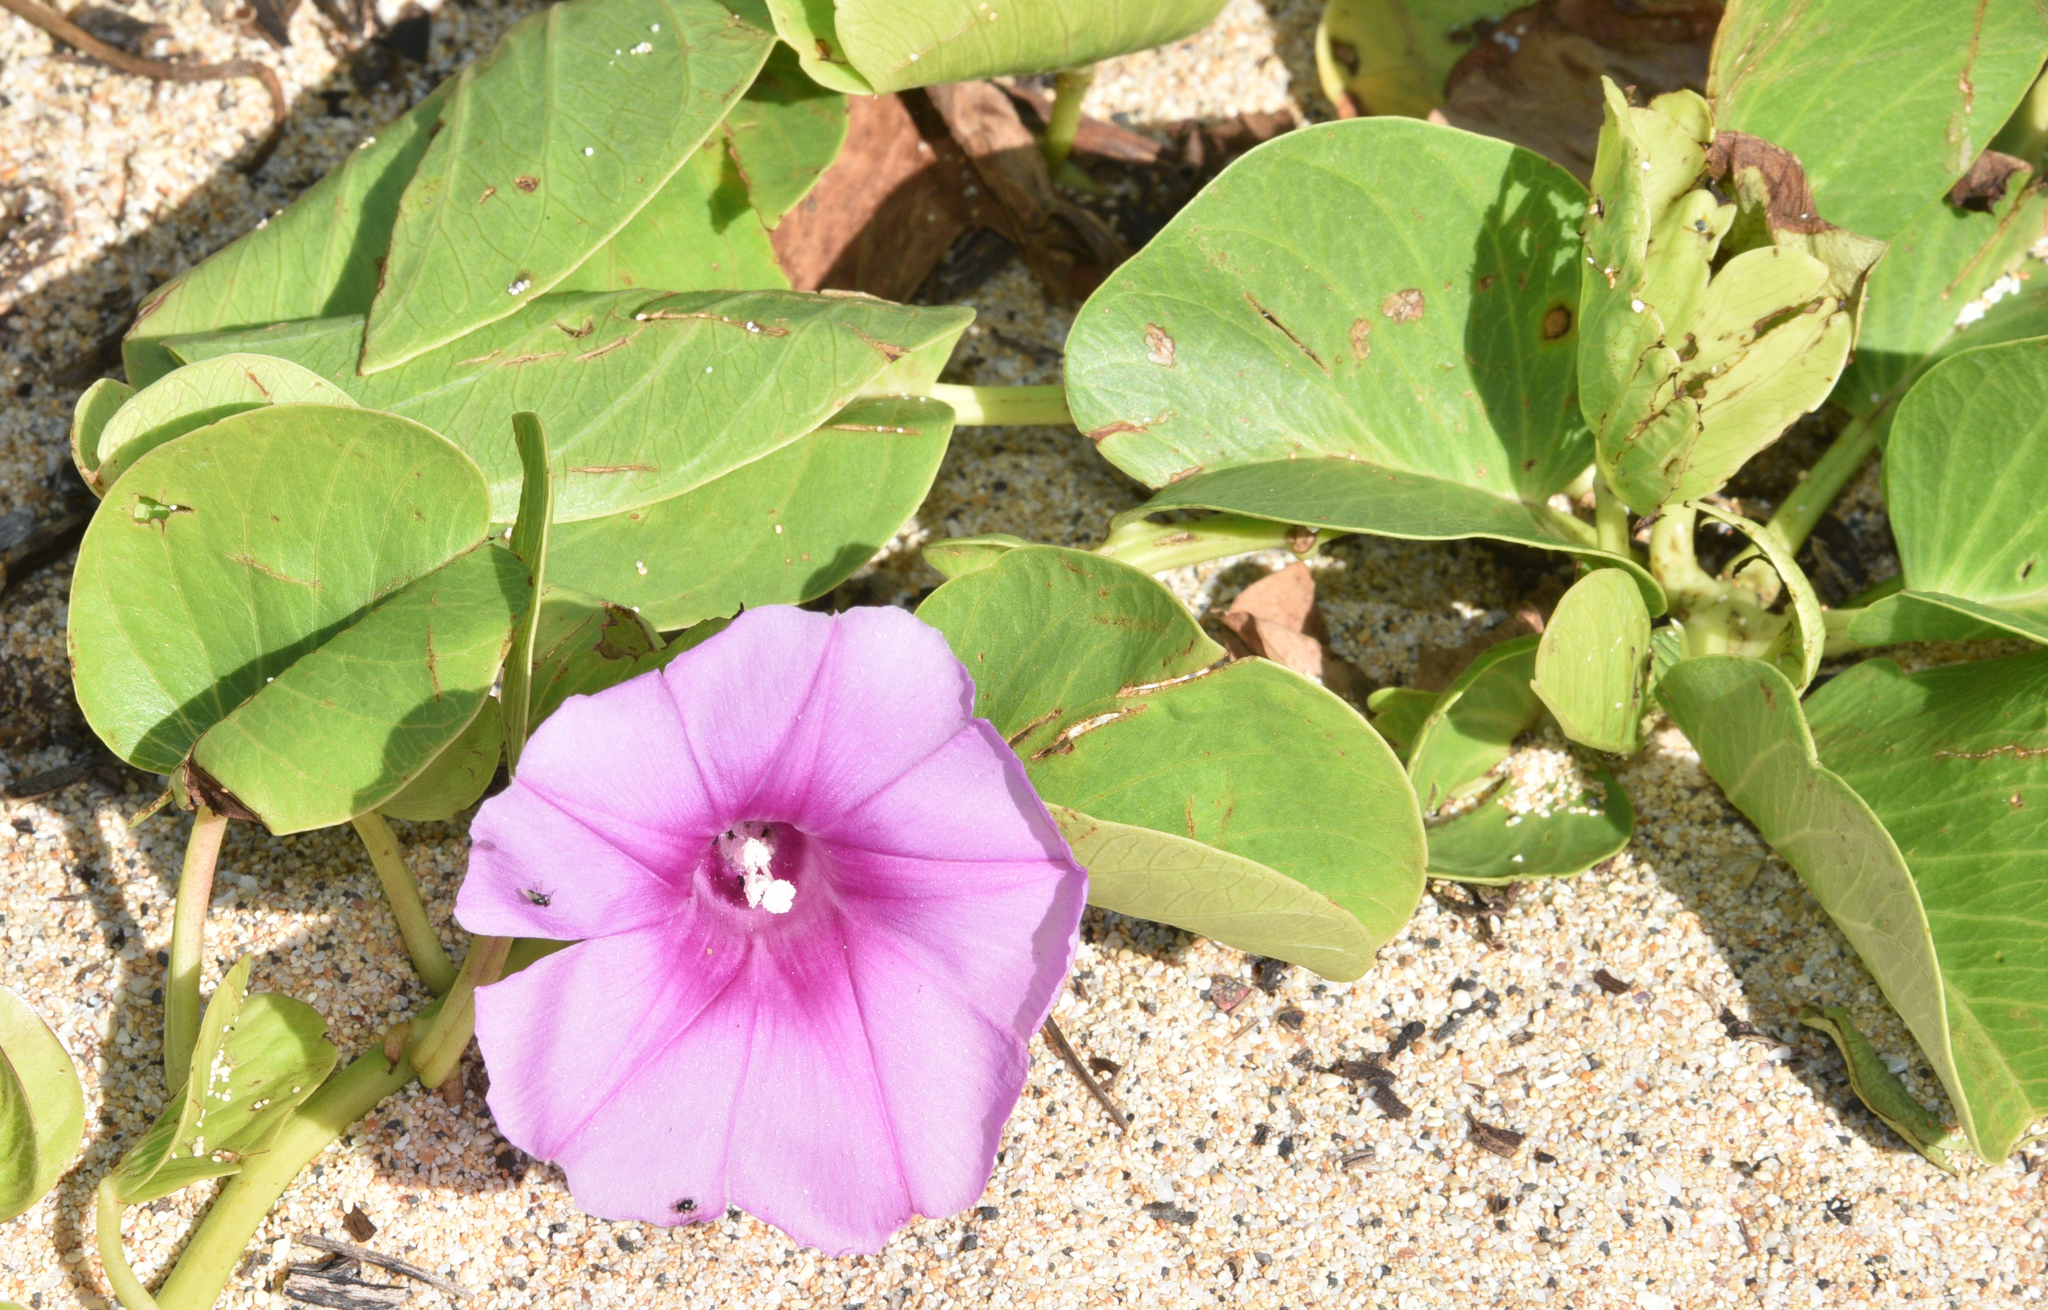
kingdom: Plantae
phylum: Tracheophyta
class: Magnoliopsida
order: Solanales
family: Convolvulaceae
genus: Ipomoea
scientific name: Ipomoea pes-caprae
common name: Beach morning glory
